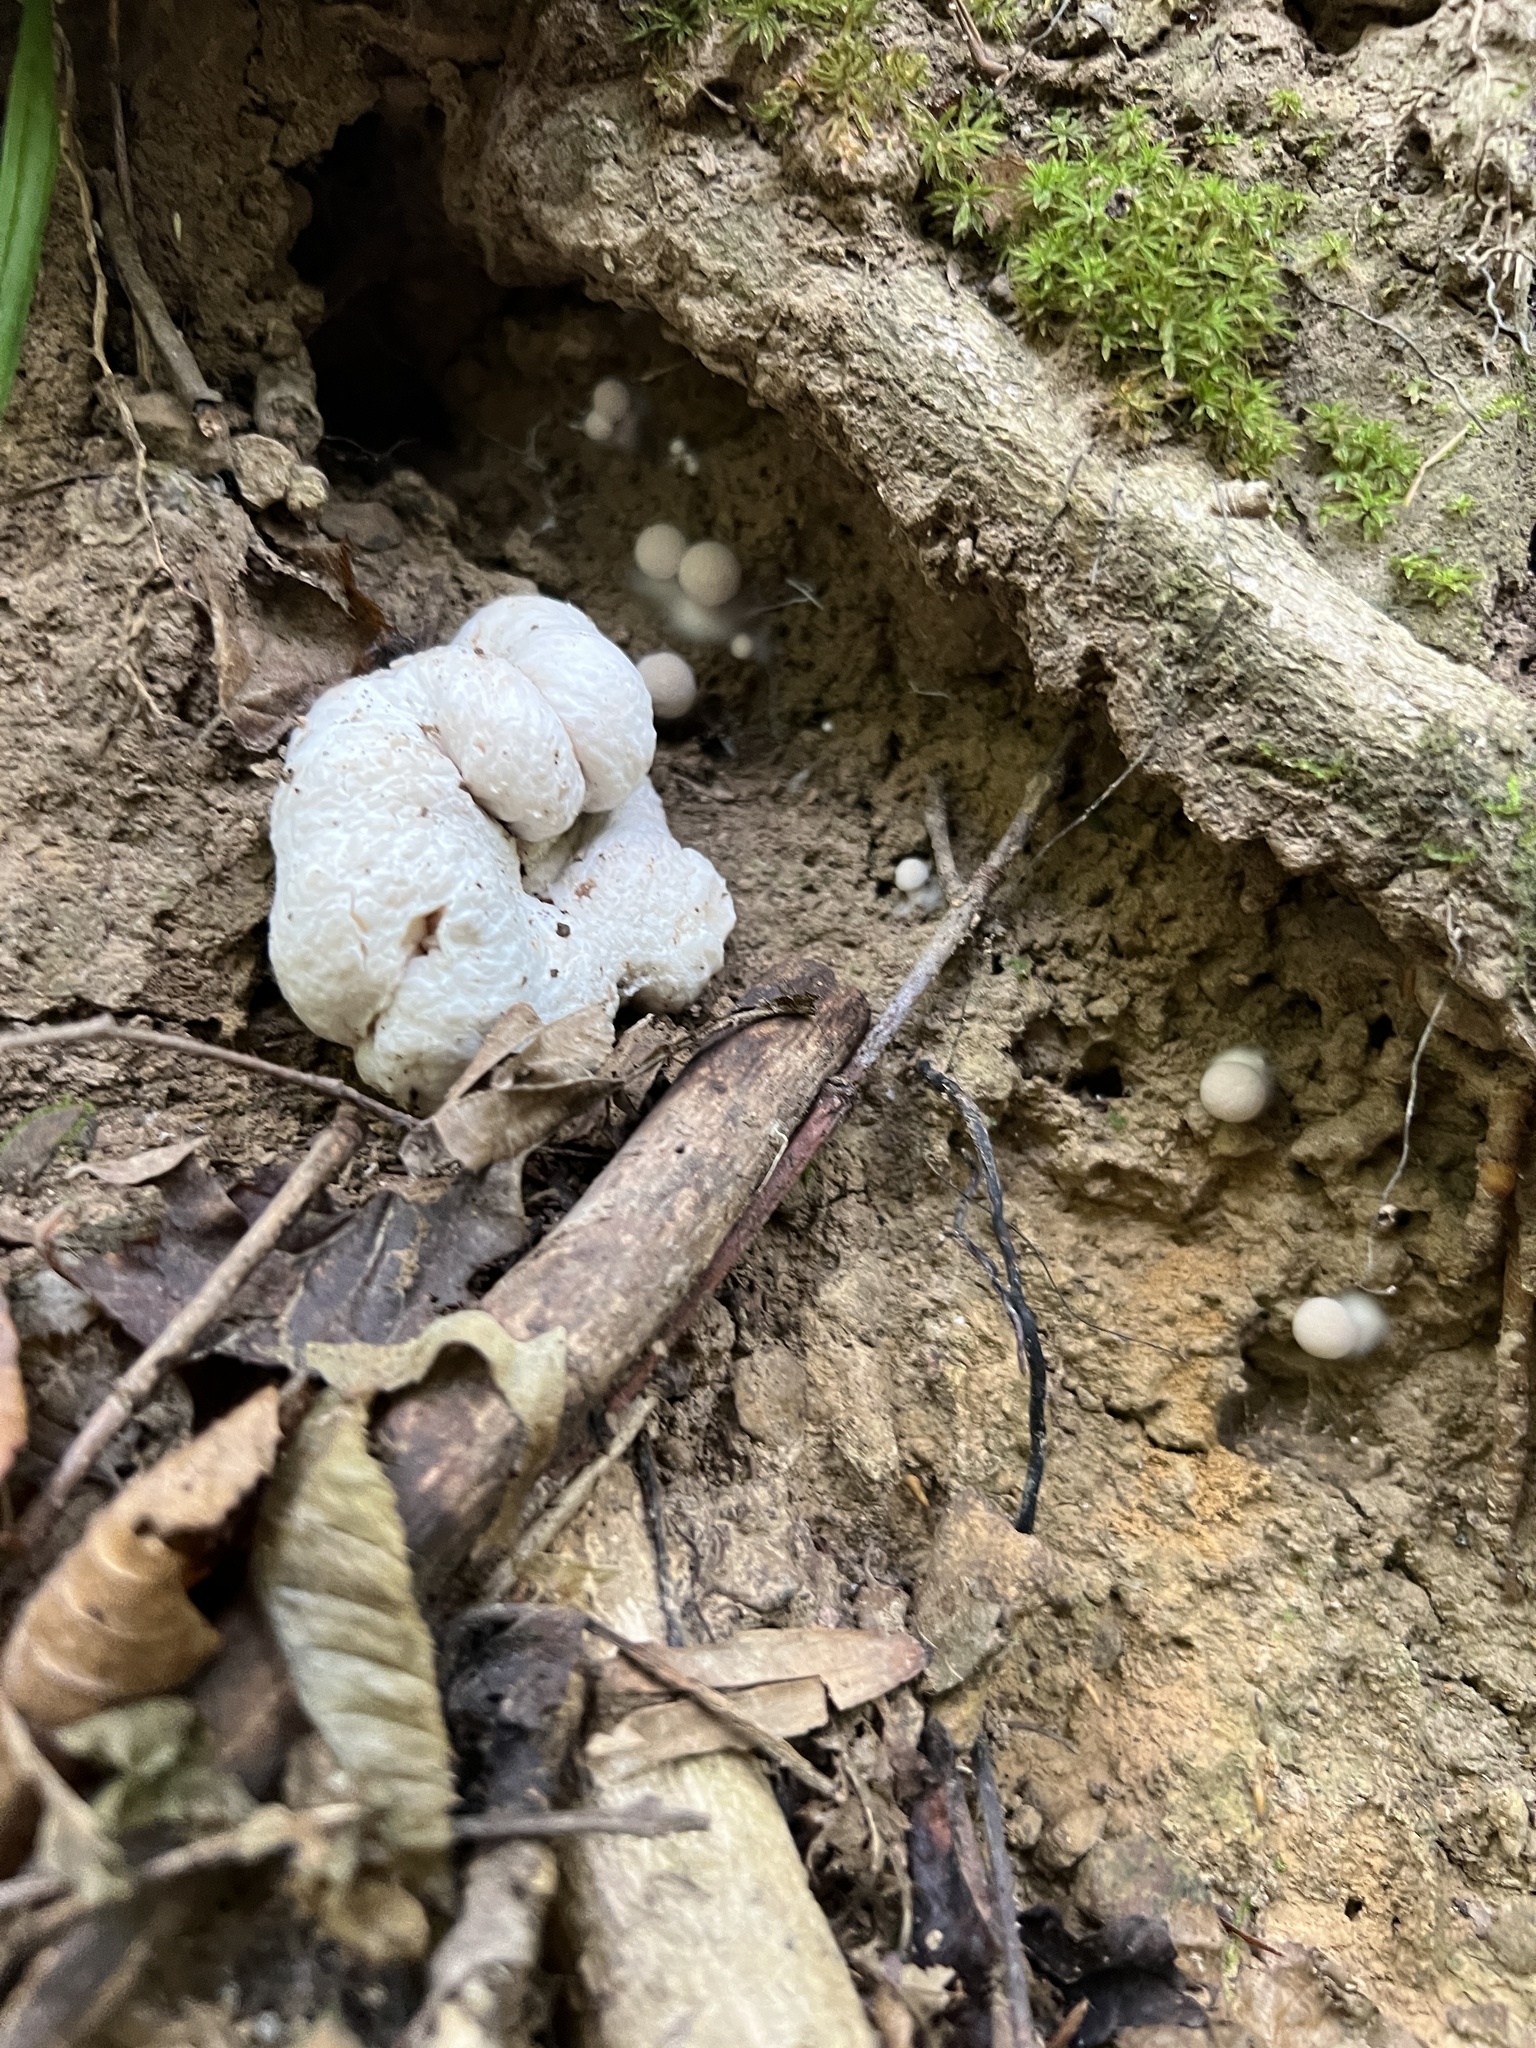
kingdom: Fungi
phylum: Basidiomycota
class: Agaricomycetes
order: Agaricales
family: Entolomataceae
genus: Entoloma
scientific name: Entoloma abortivum
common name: Aborted entoloma
